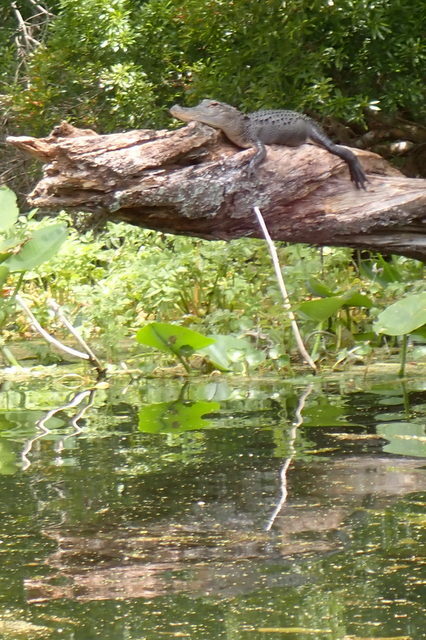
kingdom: Animalia
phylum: Chordata
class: Crocodylia
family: Alligatoridae
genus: Alligator
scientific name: Alligator mississippiensis
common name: American alligator
